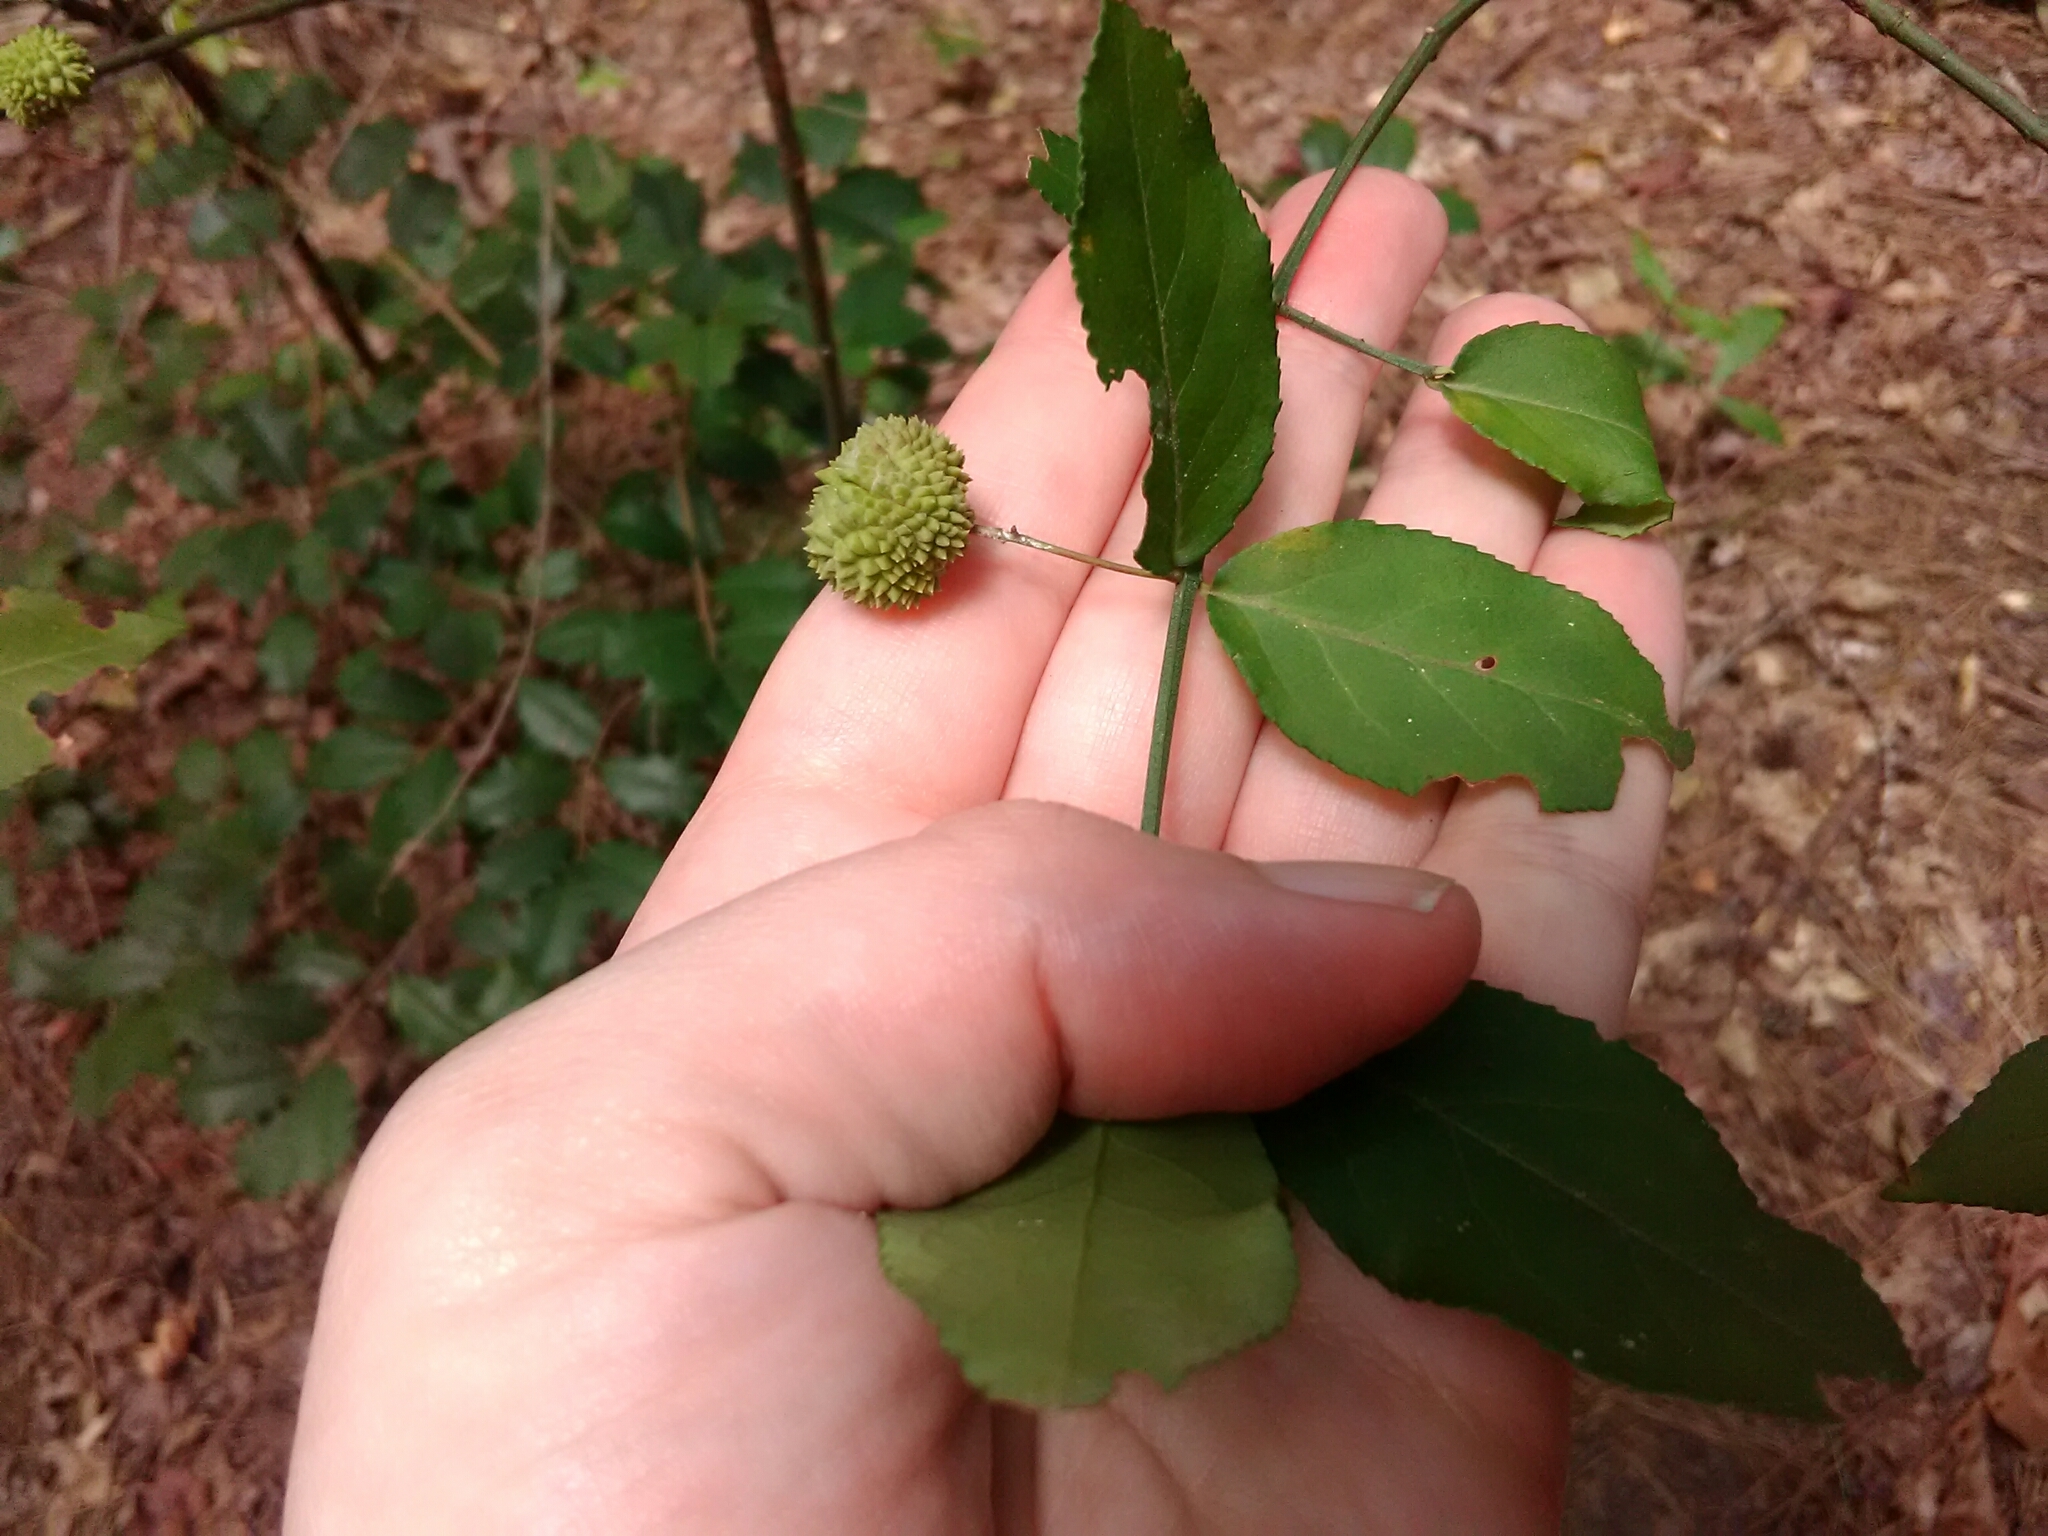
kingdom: Plantae
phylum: Tracheophyta
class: Magnoliopsida
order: Celastrales
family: Celastraceae
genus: Euonymus
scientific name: Euonymus americanus
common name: Bursting-heart
